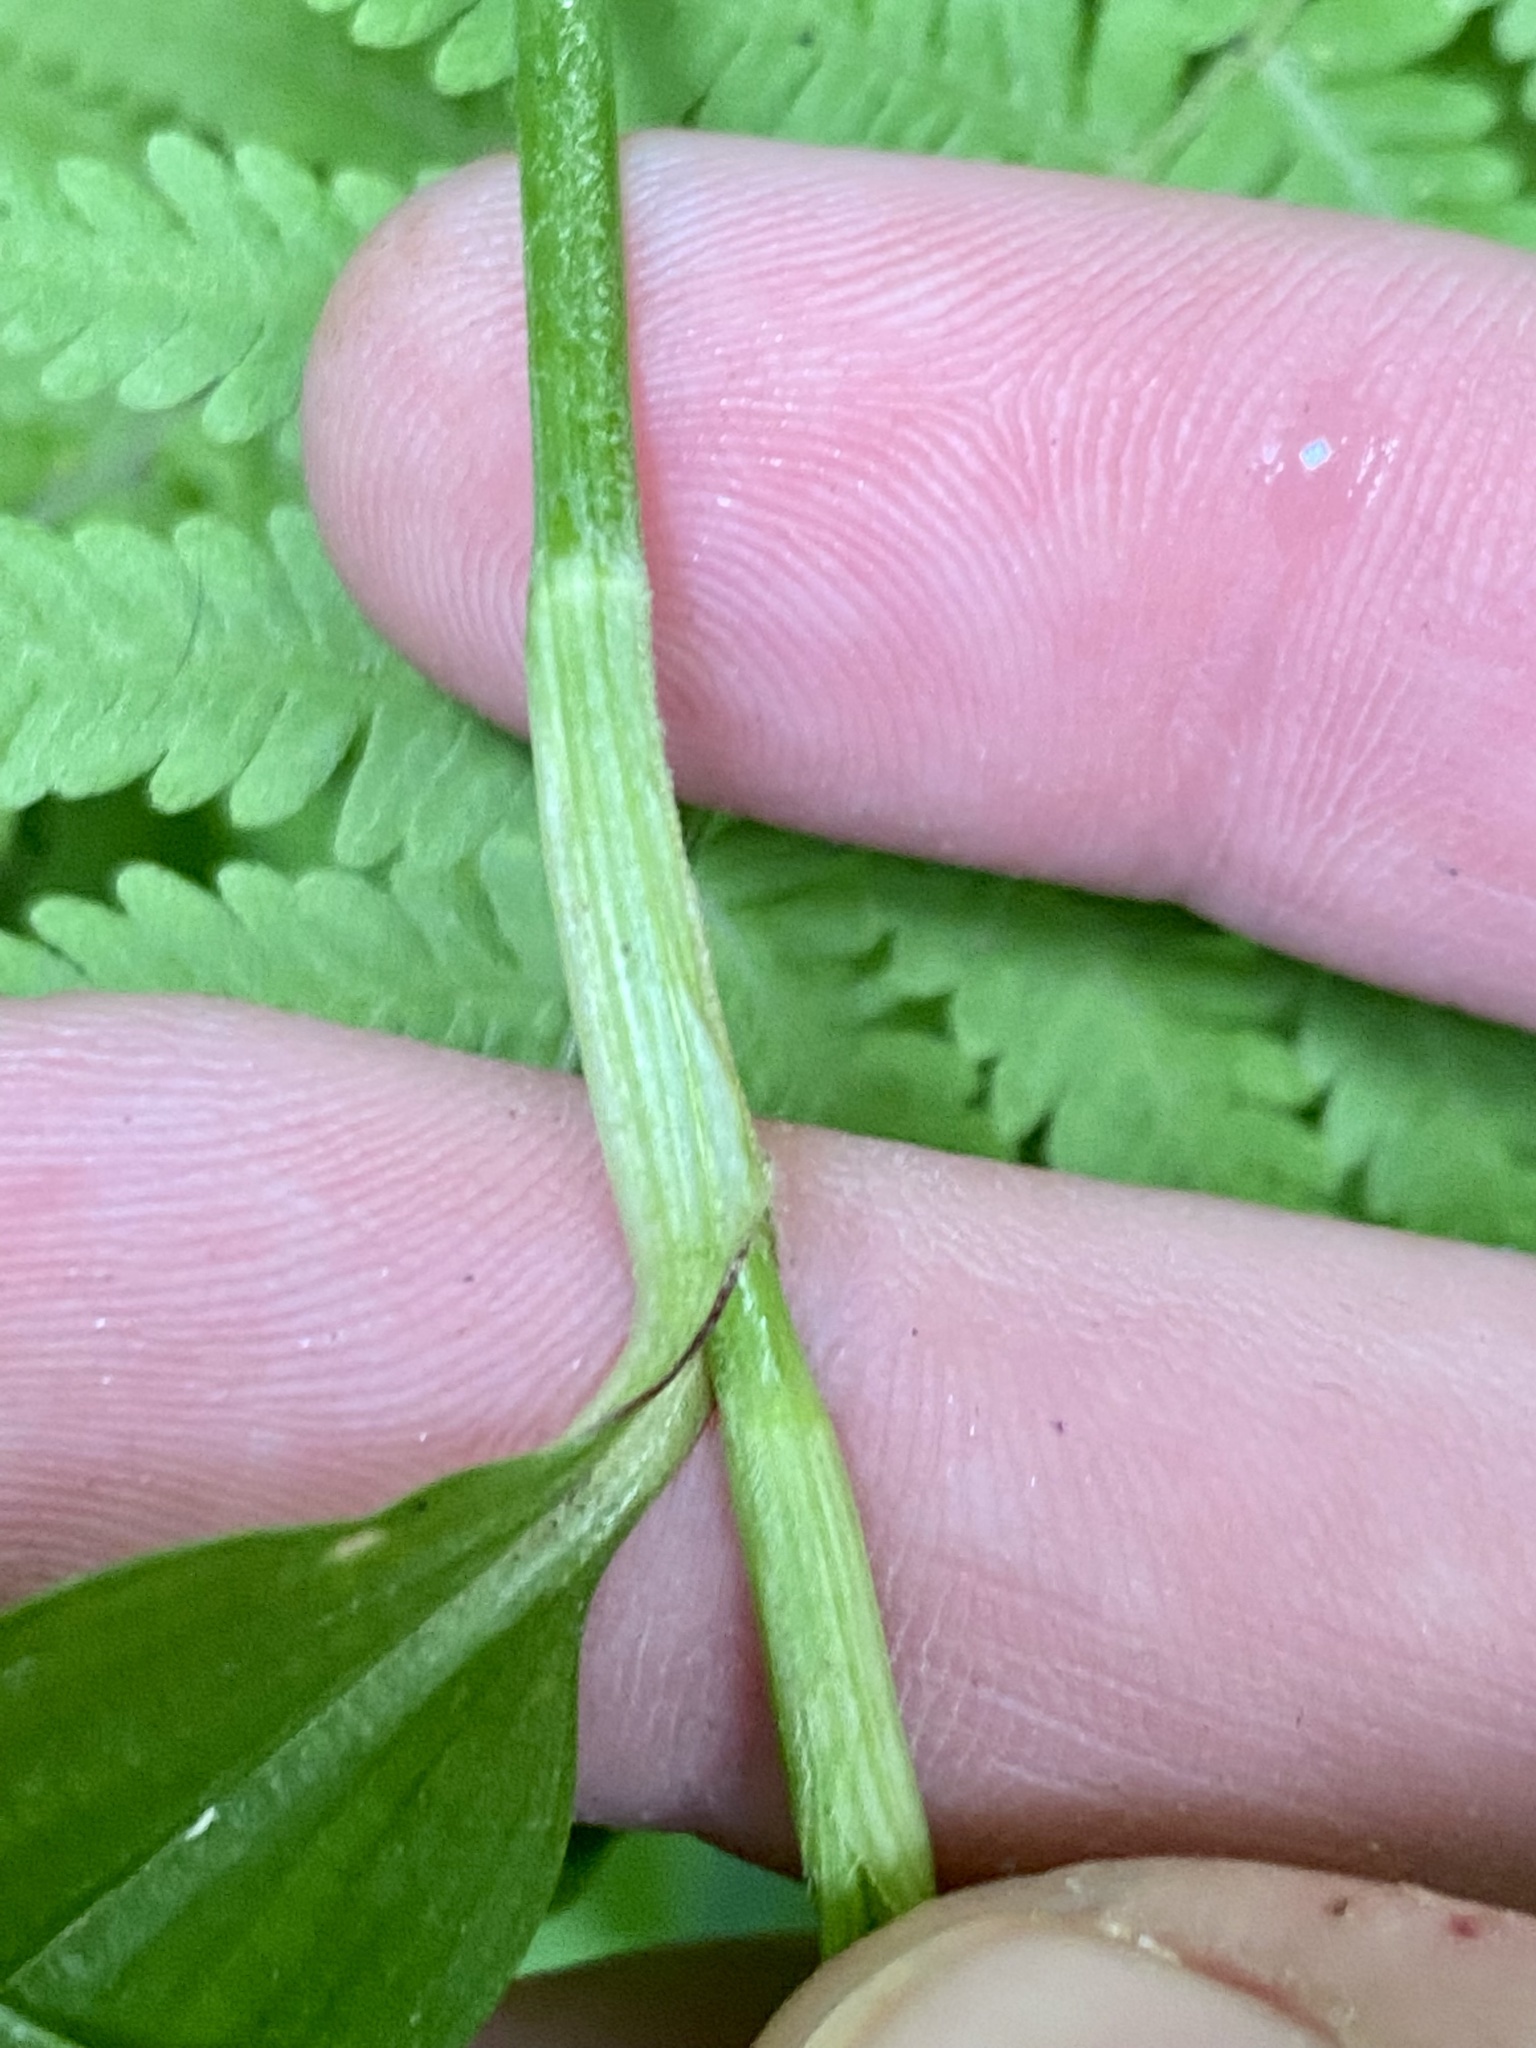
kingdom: Plantae
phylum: Tracheophyta
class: Liliopsida
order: Commelinales
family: Commelinaceae
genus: Commelina
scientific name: Commelina communis
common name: Asiatic dayflower
